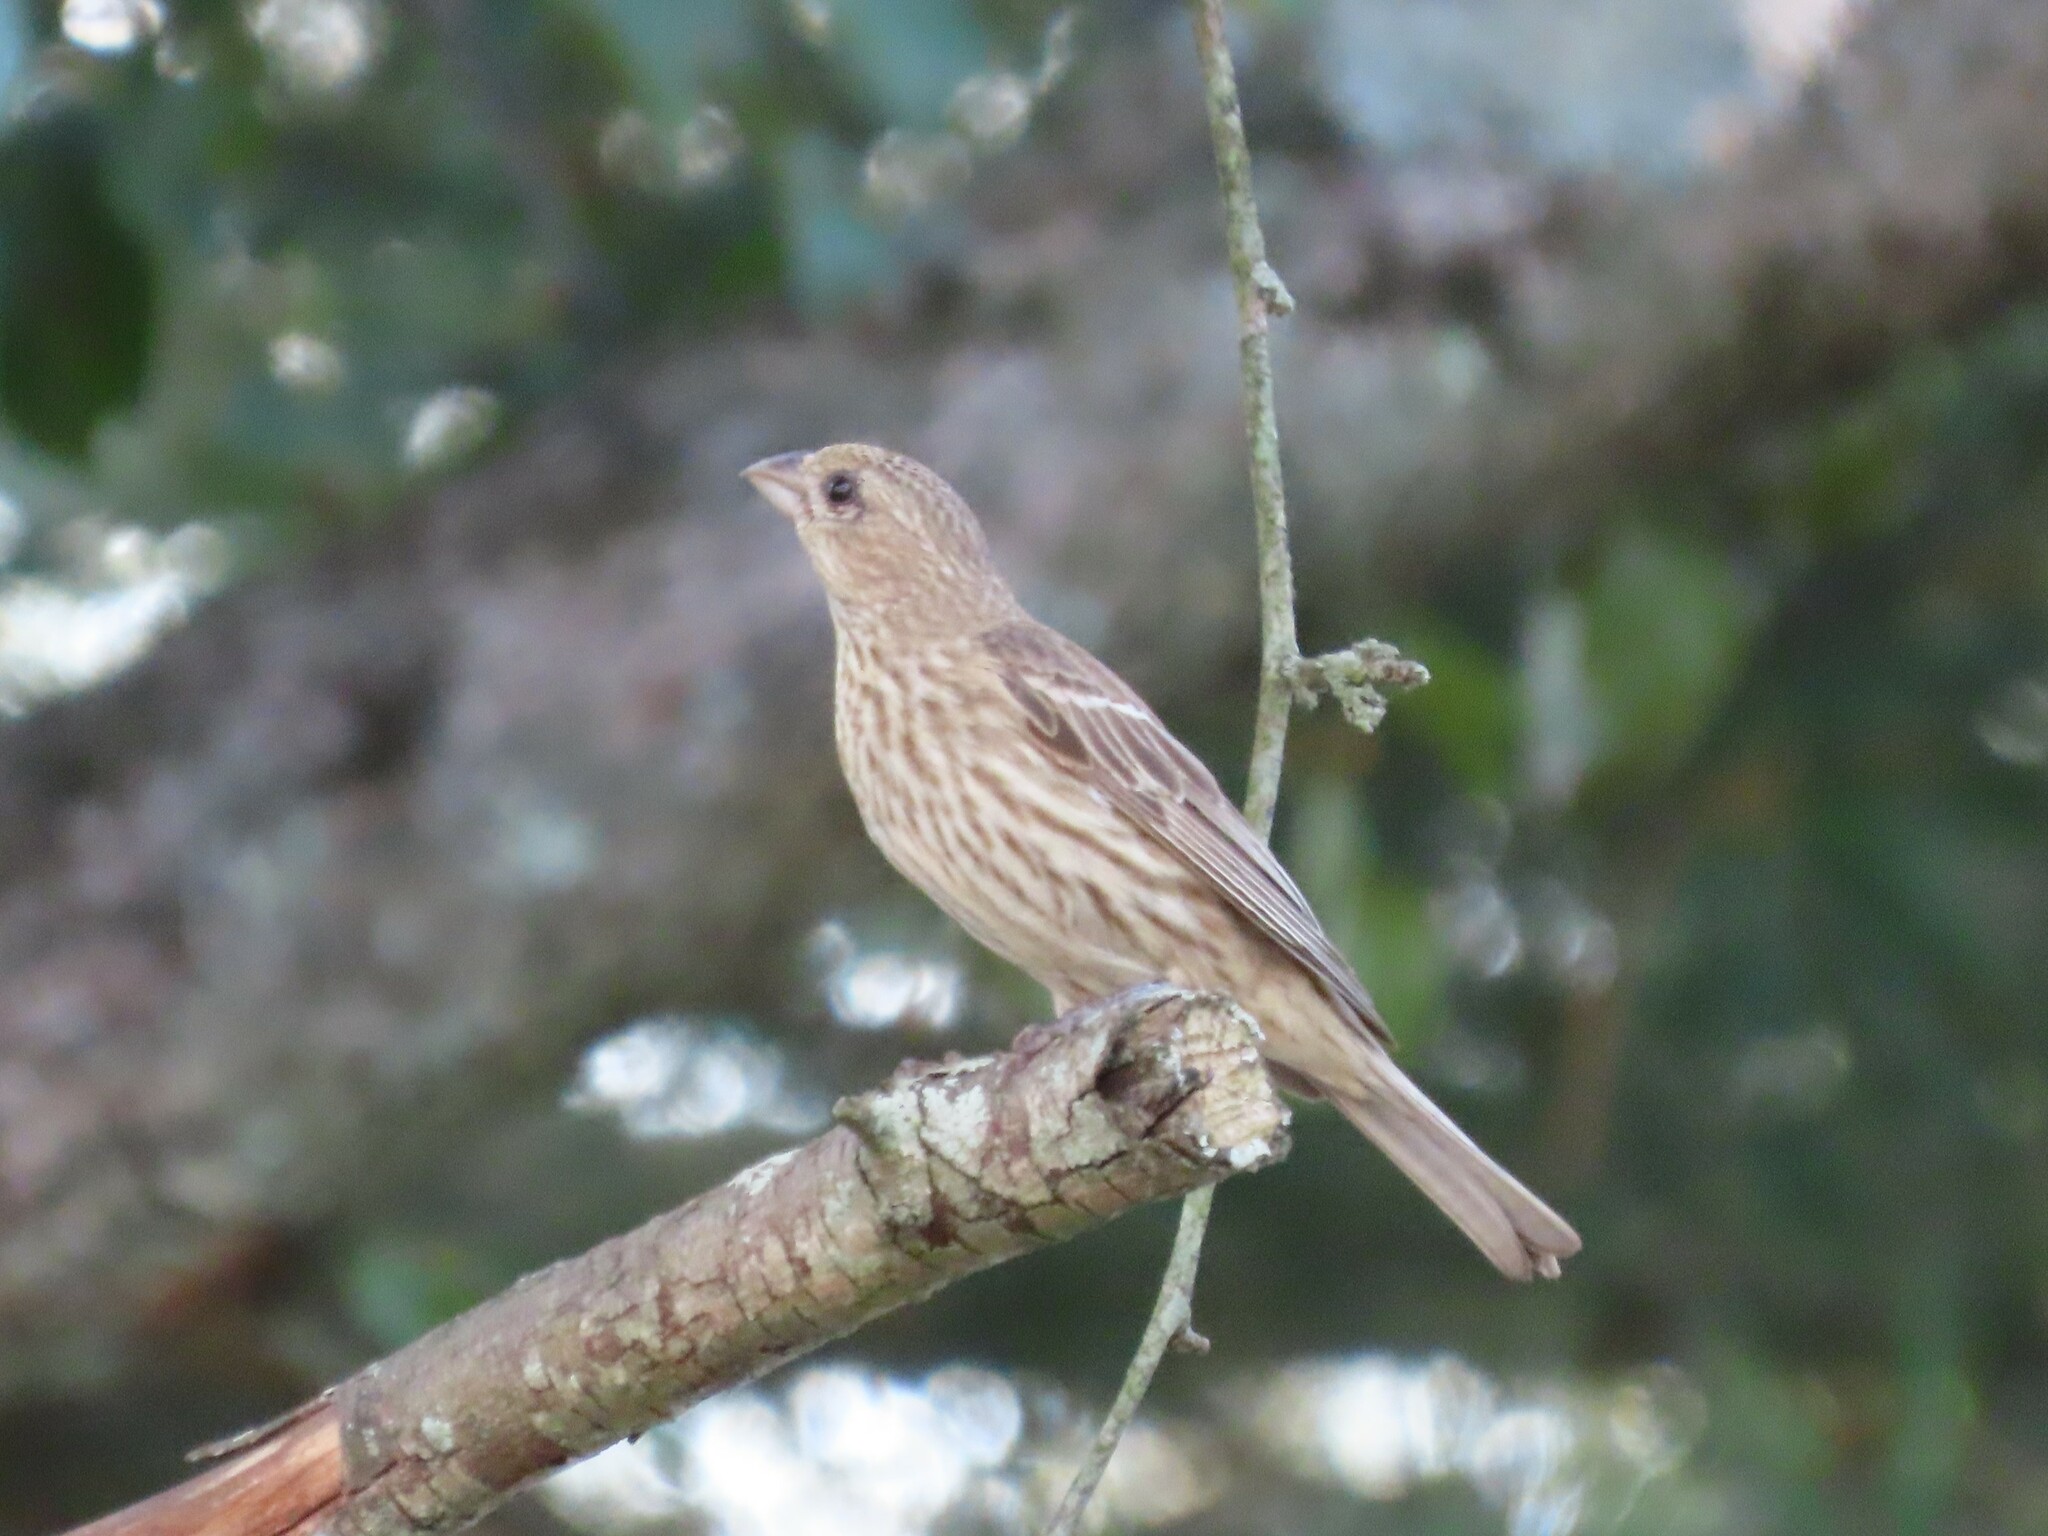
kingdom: Animalia
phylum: Chordata
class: Aves
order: Passeriformes
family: Fringillidae
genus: Haemorhous
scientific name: Haemorhous mexicanus
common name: House finch
